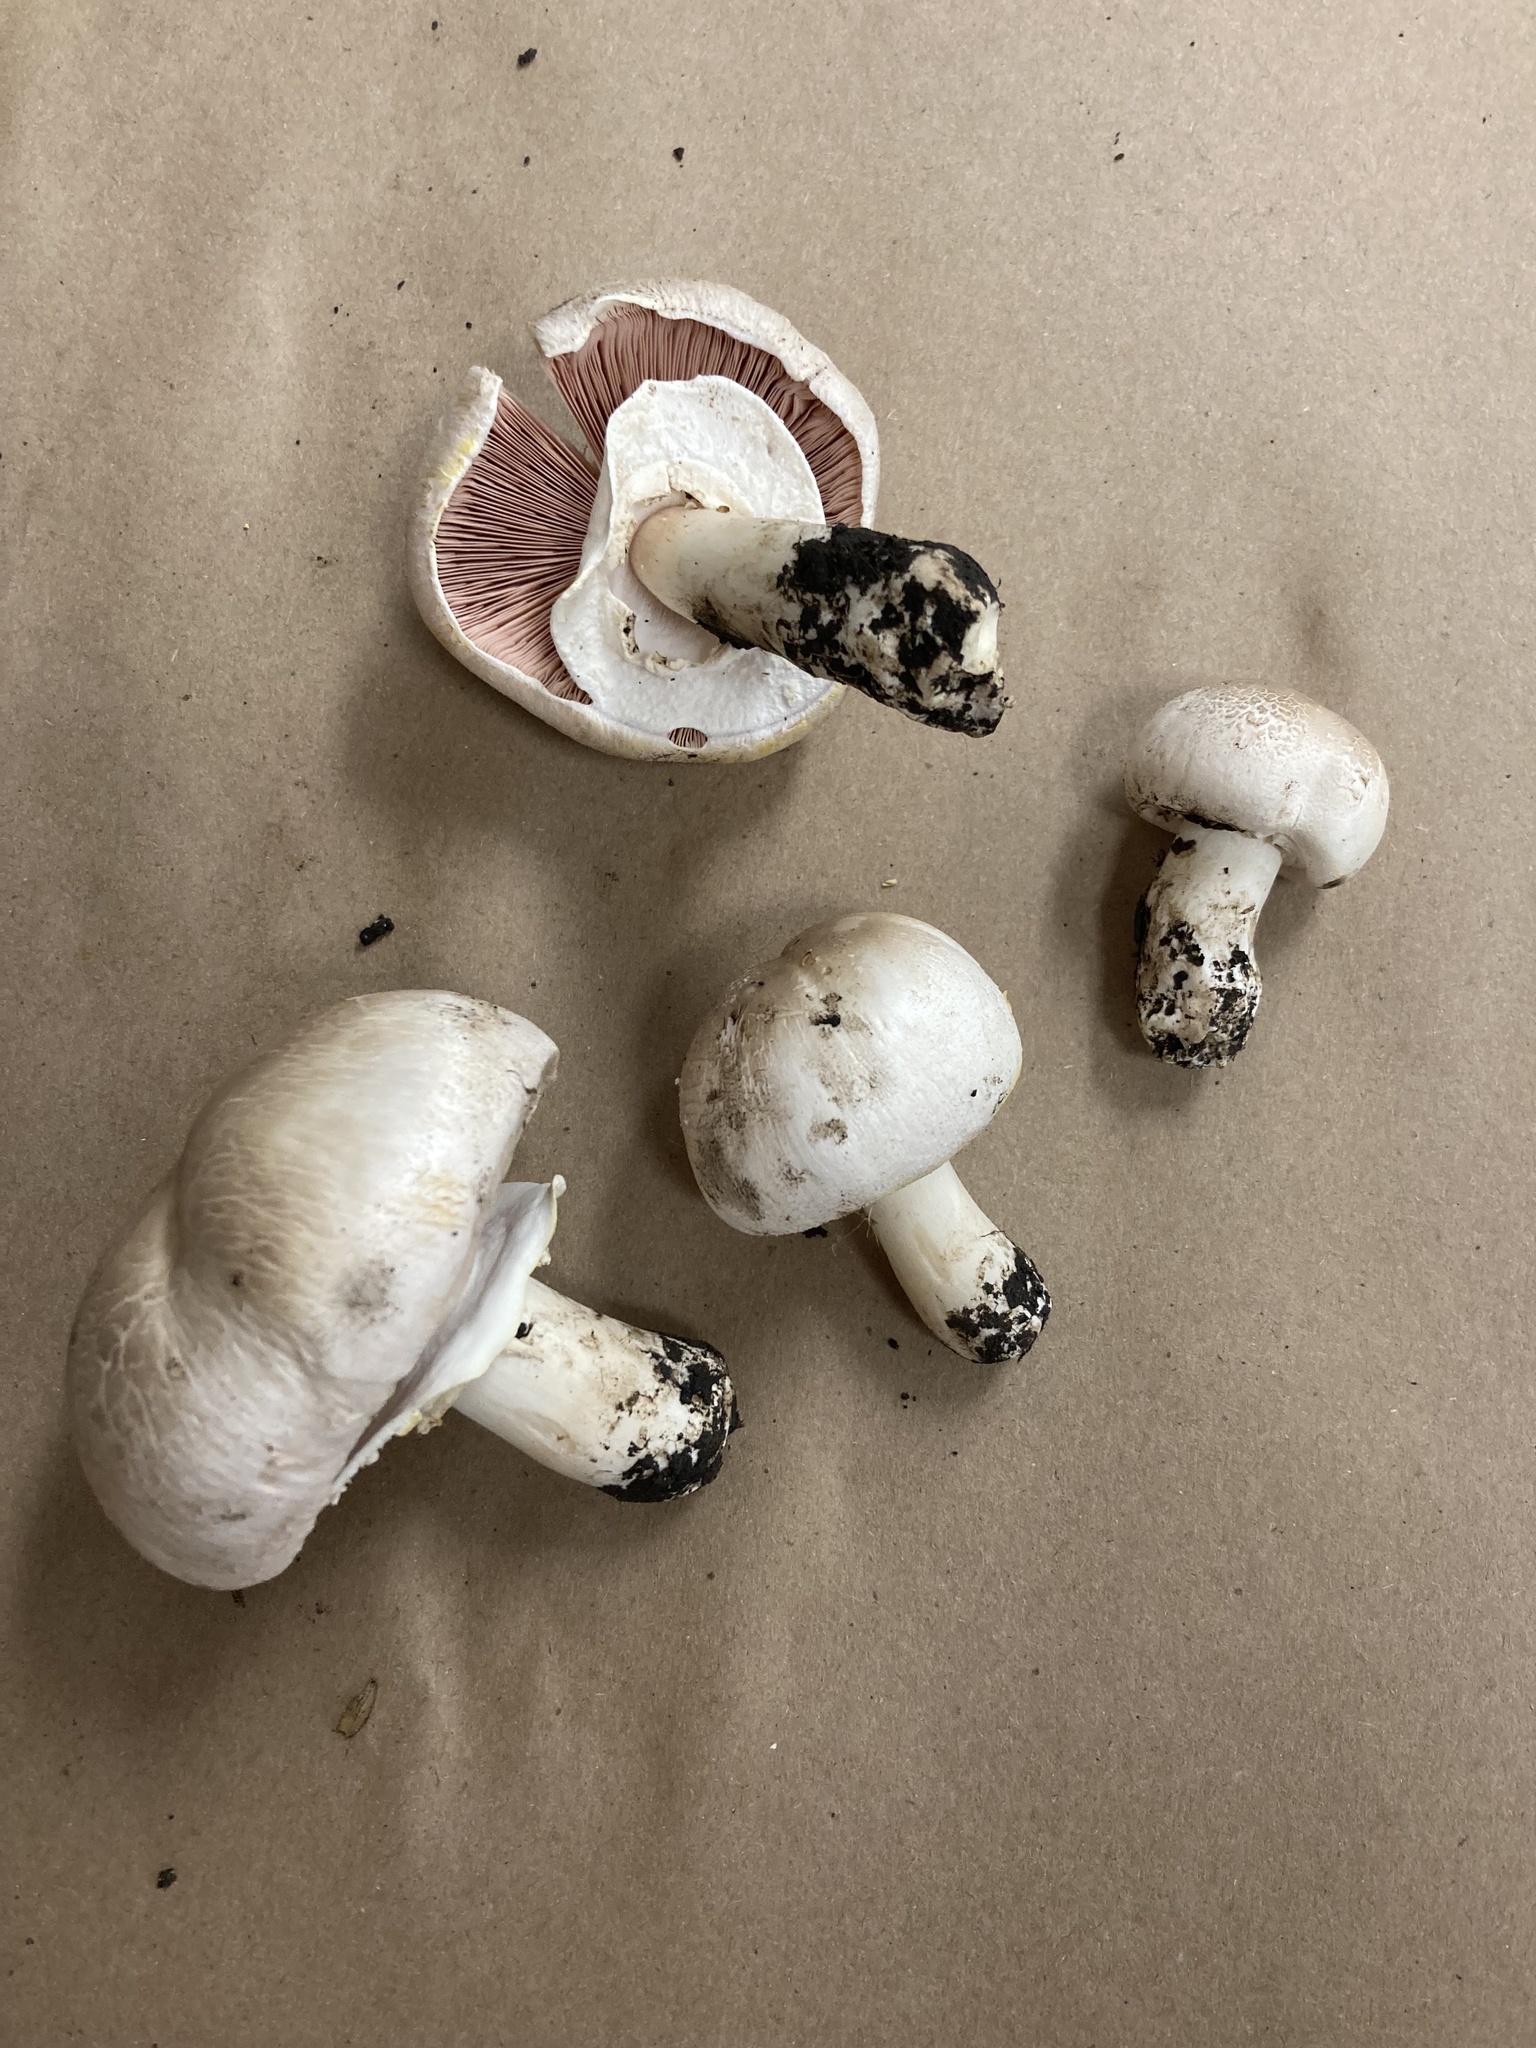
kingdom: Fungi
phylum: Basidiomycota
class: Agaricomycetes
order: Agaricales
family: Agaricaceae
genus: Agaricus
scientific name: Agaricus xanthodermus
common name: Yellow stainer
